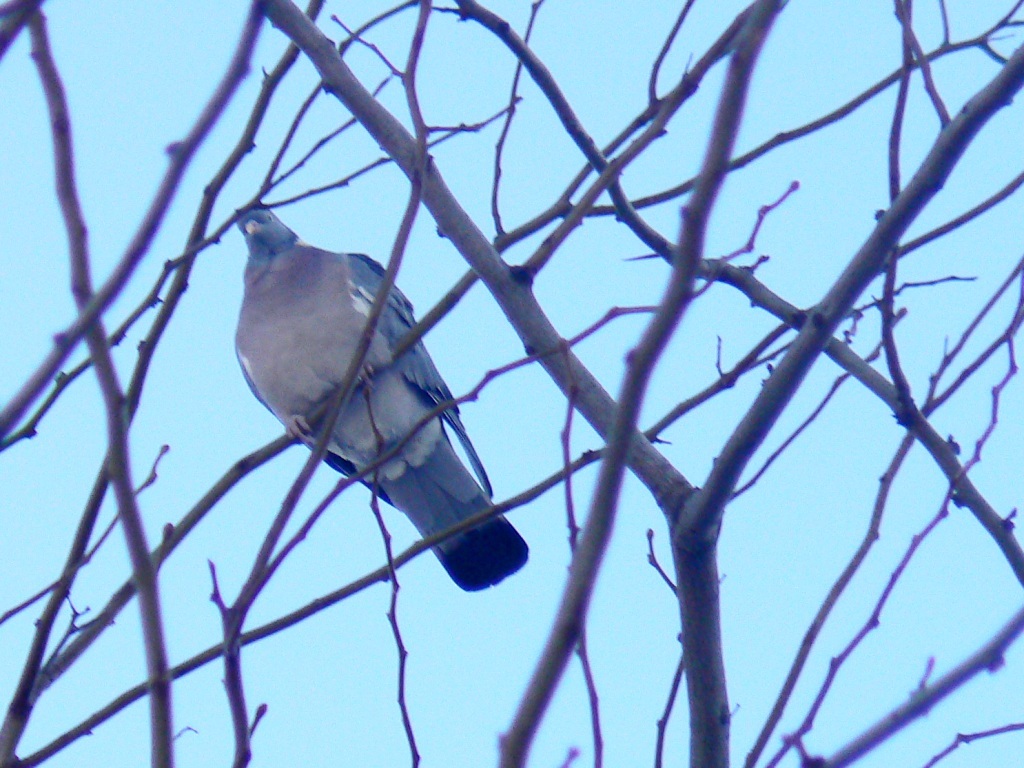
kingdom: Animalia
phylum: Chordata
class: Aves
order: Columbiformes
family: Columbidae
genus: Columba
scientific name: Columba palumbus
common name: Common wood pigeon
